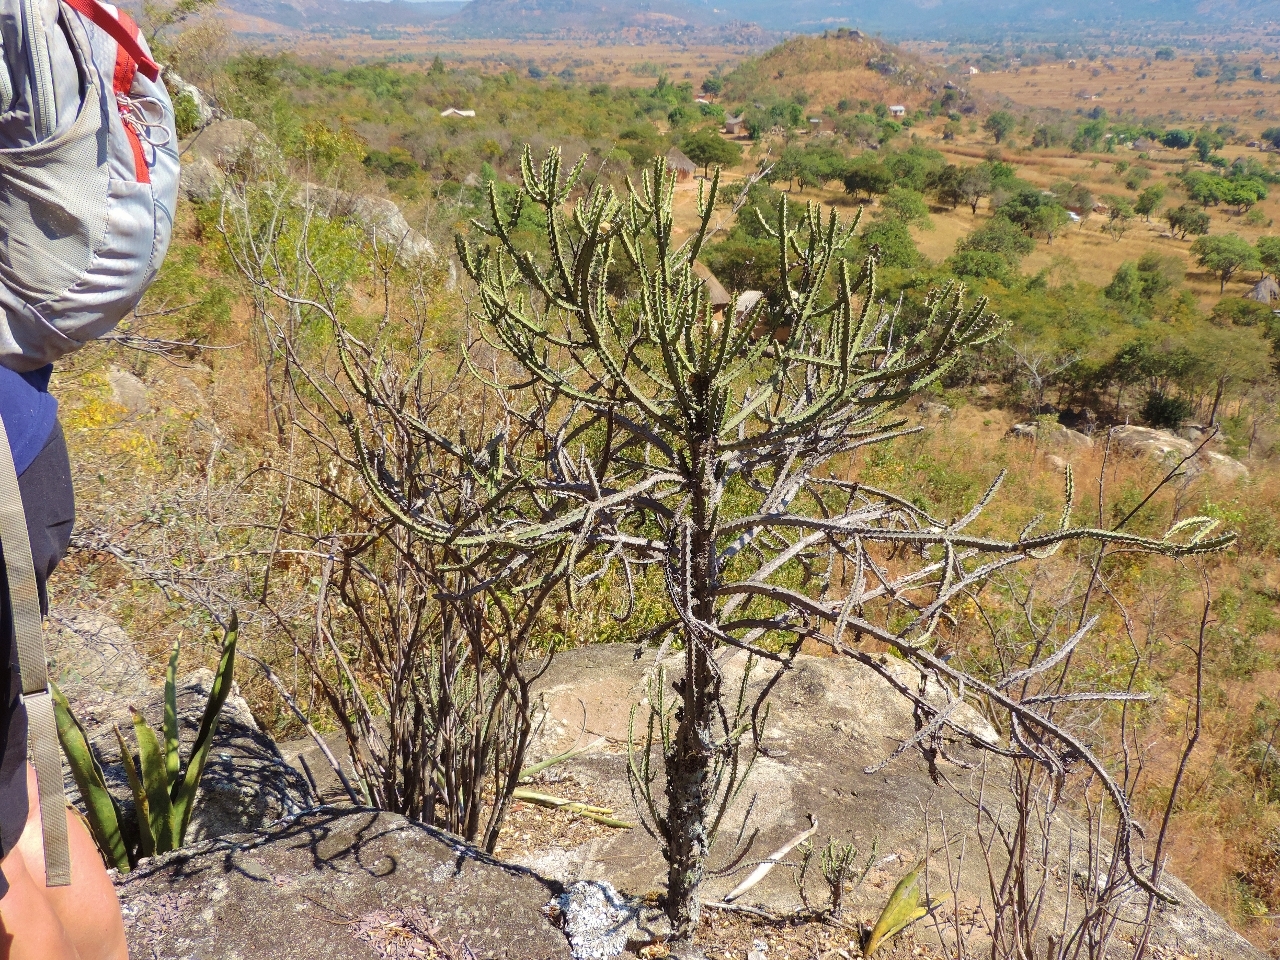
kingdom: Plantae
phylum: Tracheophyta
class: Magnoliopsida
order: Malpighiales
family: Euphorbiaceae
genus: Euphorbia
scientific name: Euphorbia griseola
